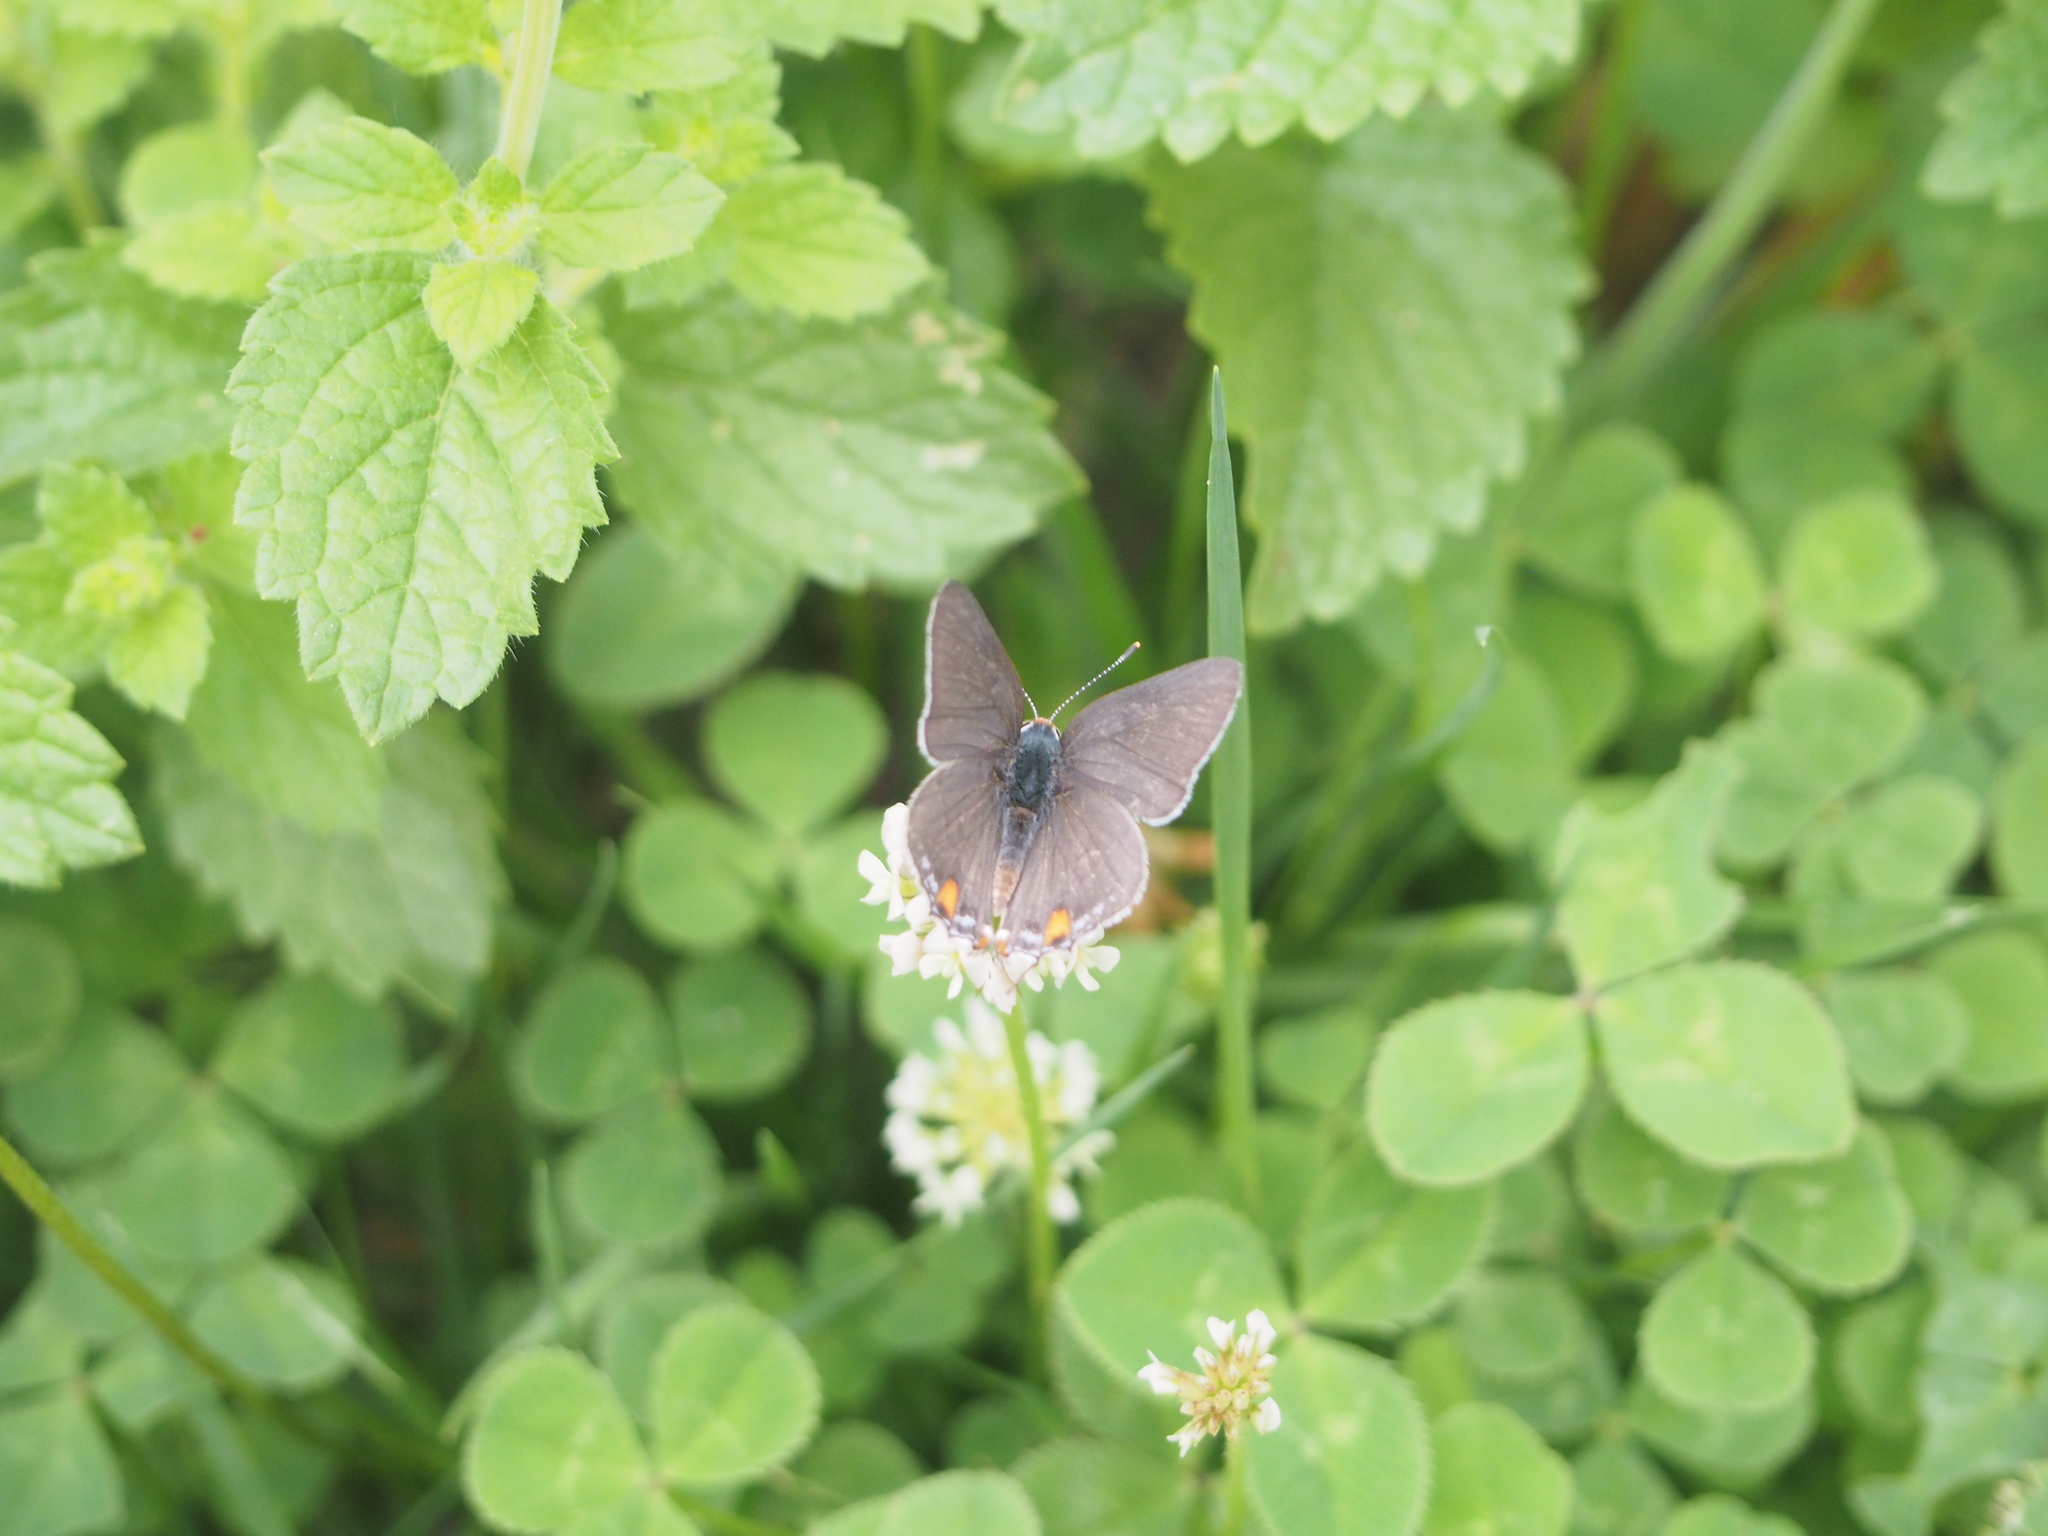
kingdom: Animalia
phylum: Arthropoda
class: Insecta
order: Lepidoptera
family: Lycaenidae
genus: Strymon
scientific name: Strymon melinus
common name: Gray hairstreak
